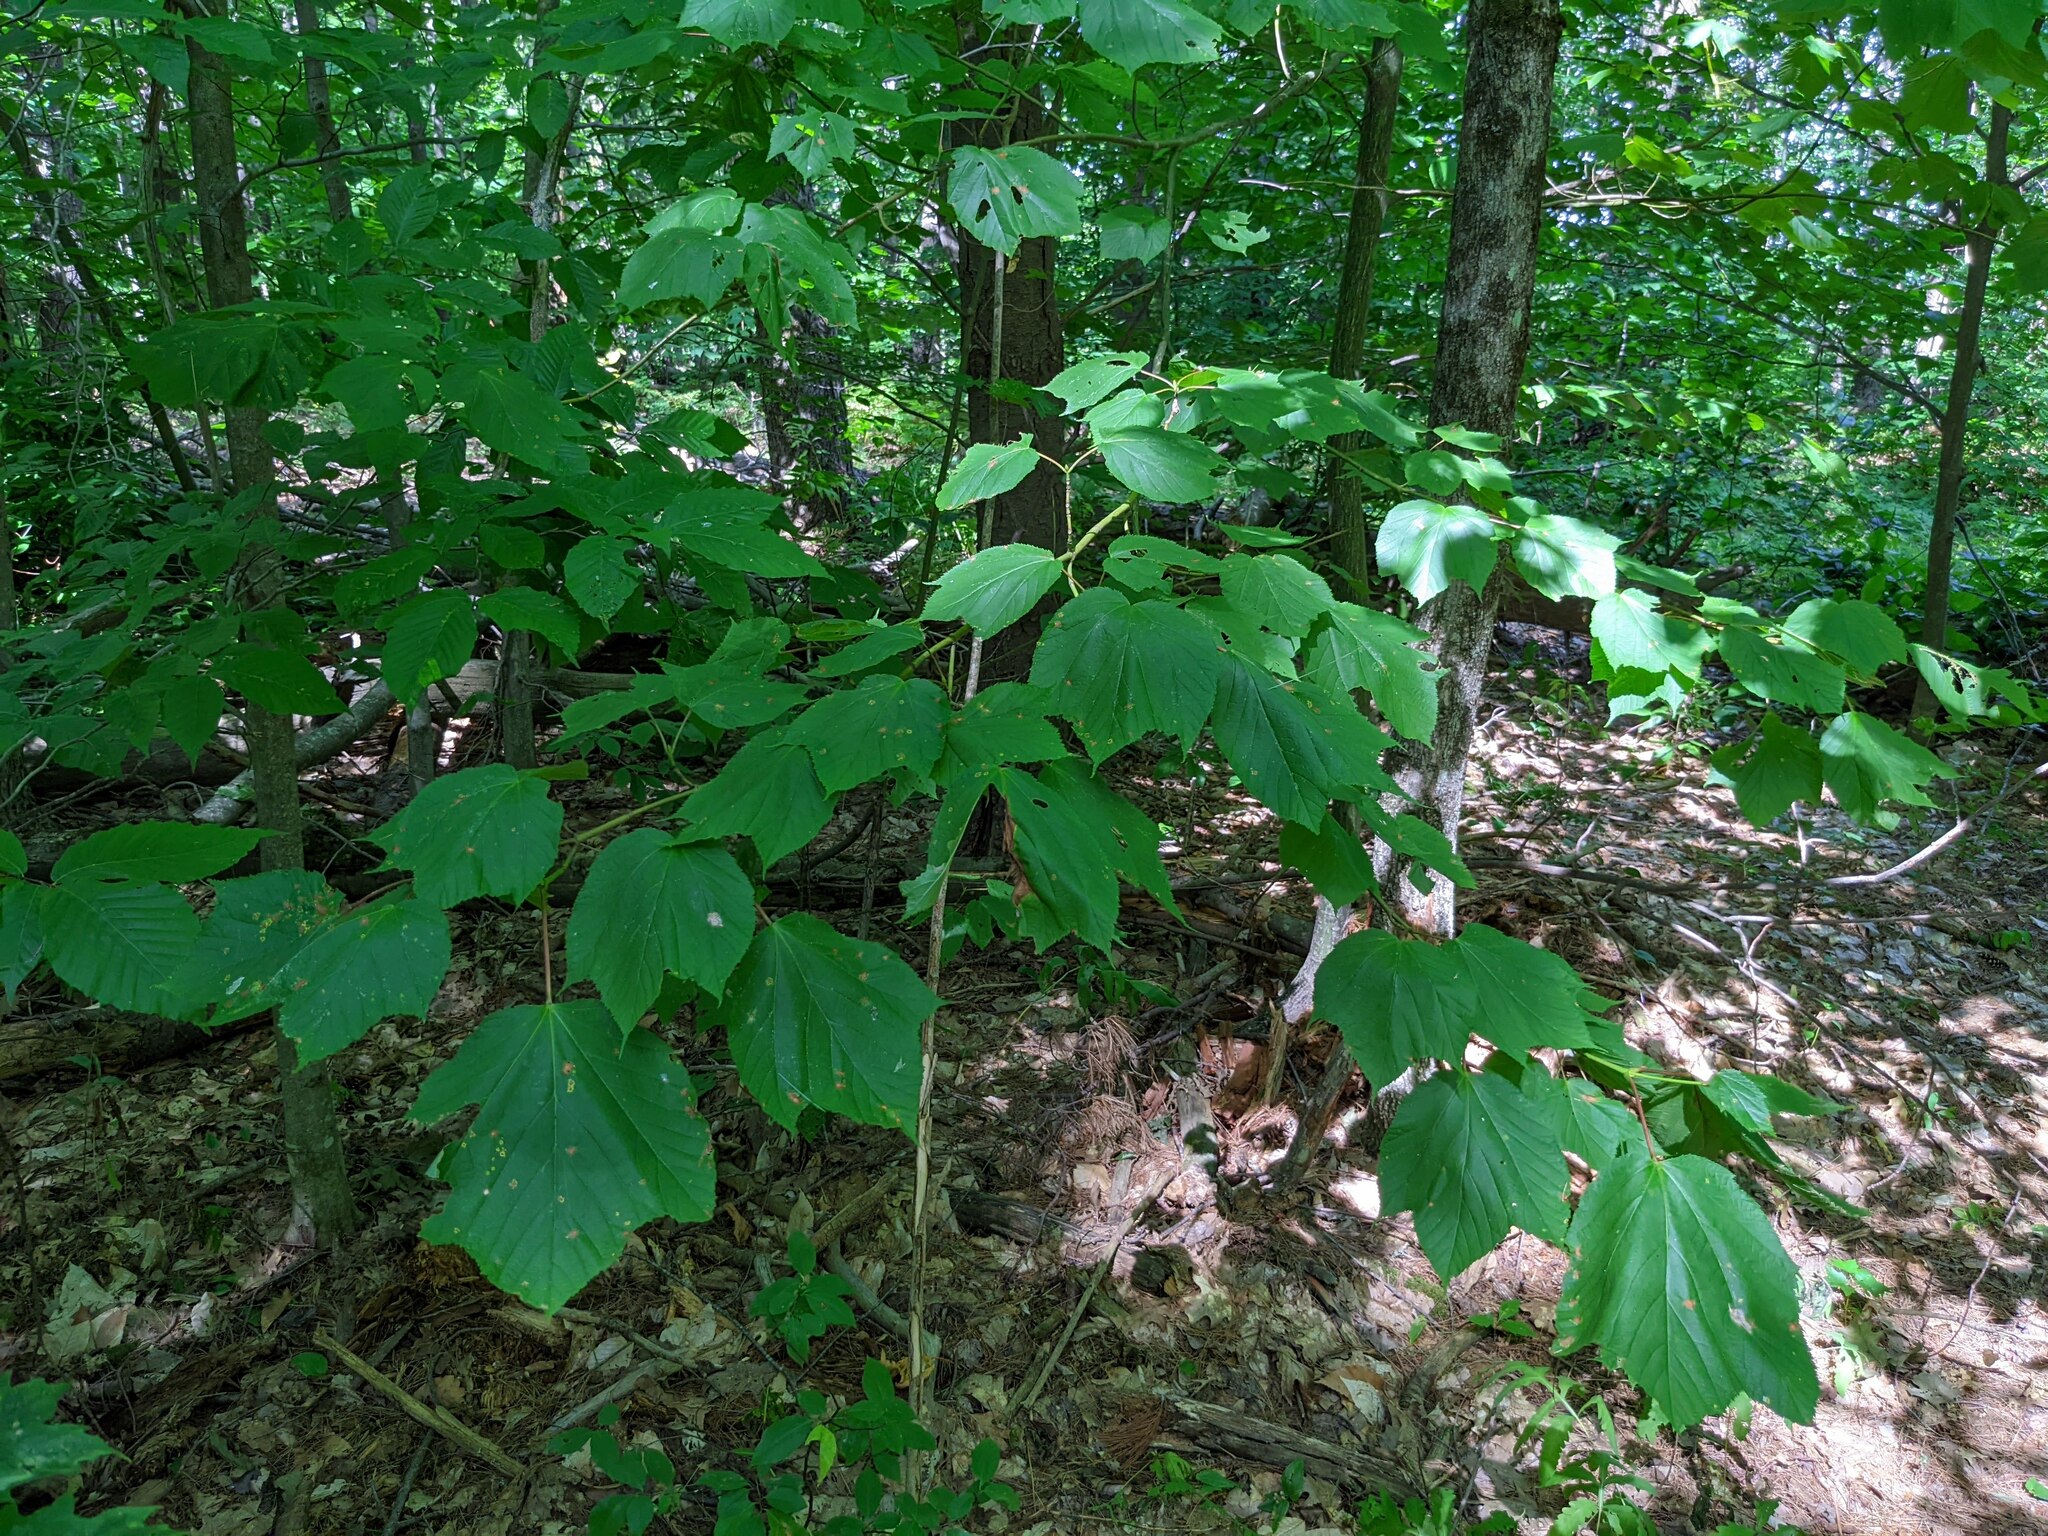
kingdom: Plantae
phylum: Tracheophyta
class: Magnoliopsida
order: Sapindales
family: Sapindaceae
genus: Acer
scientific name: Acer pensylvanicum
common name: Moosewood
